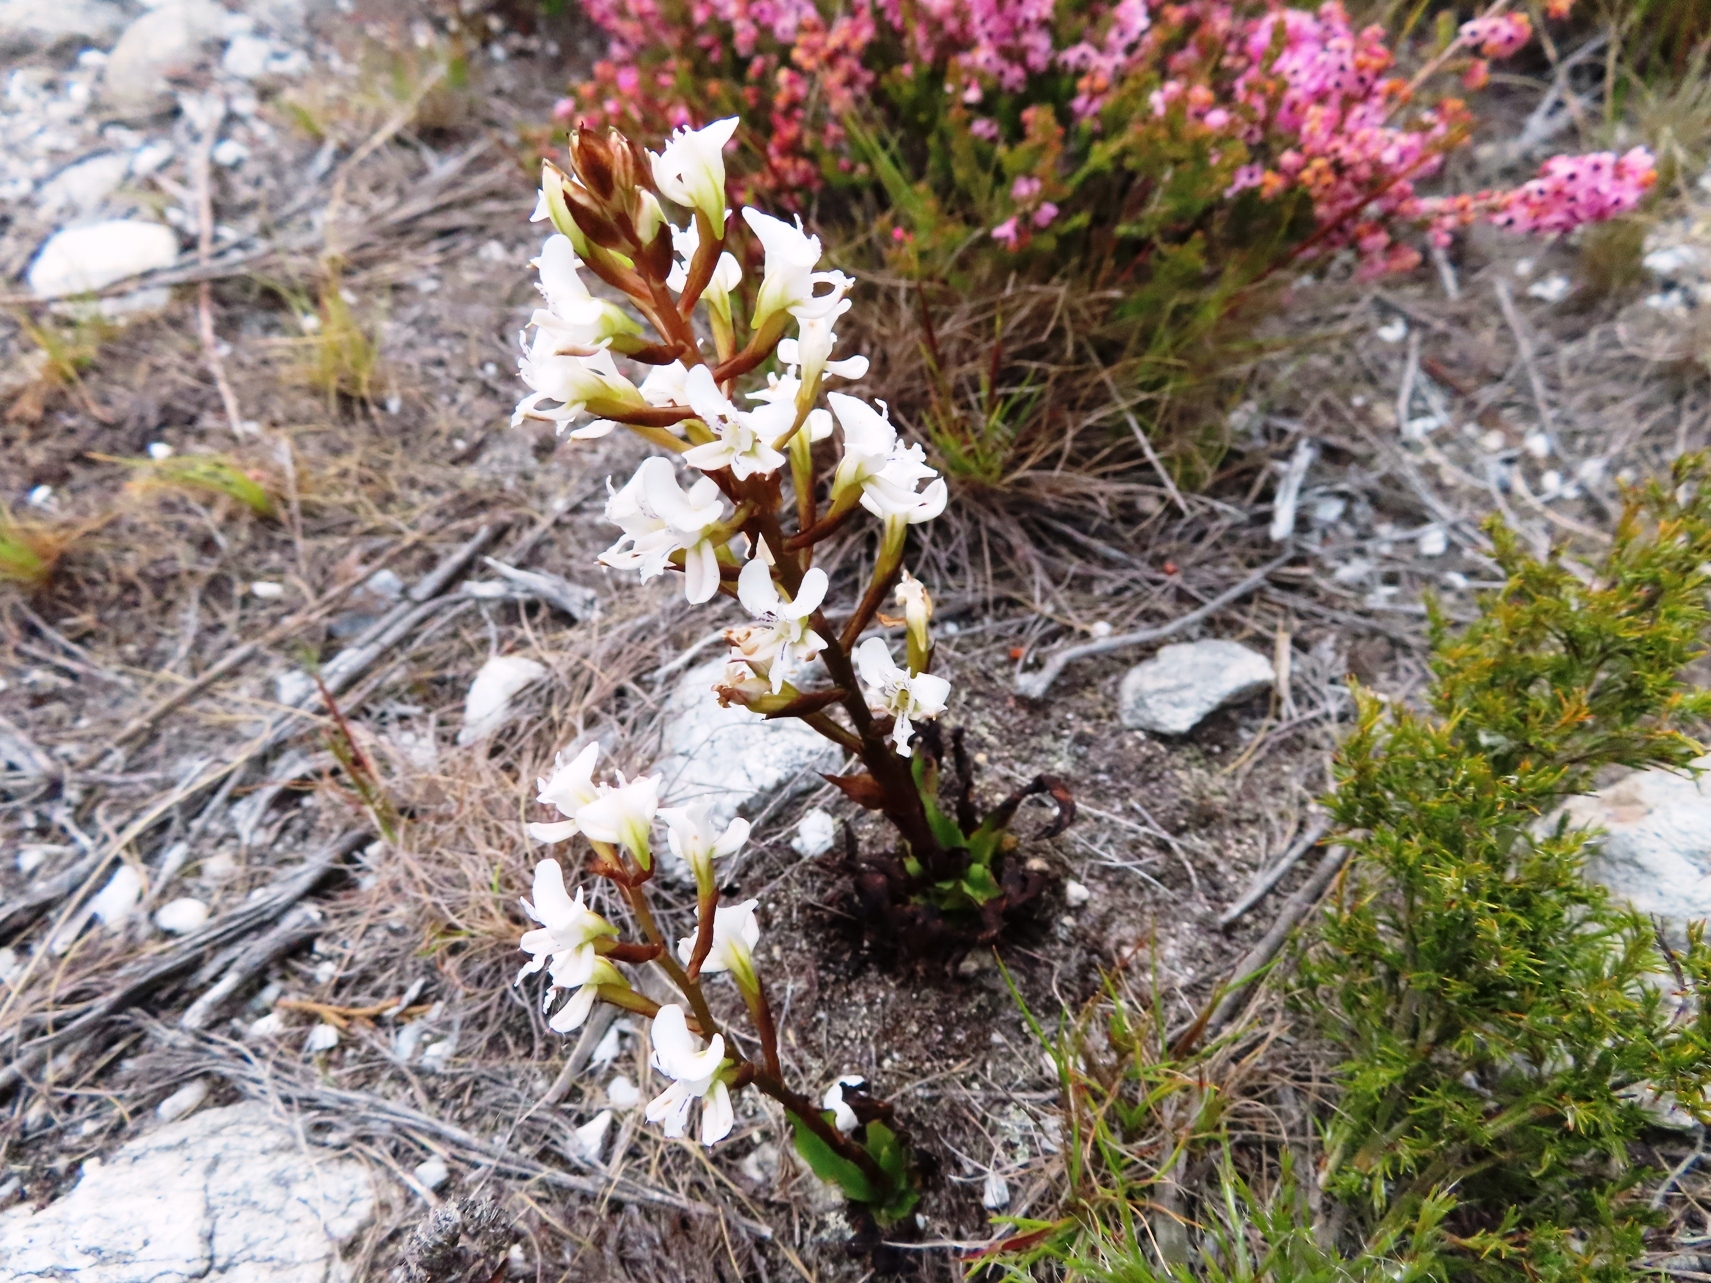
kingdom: Plantae
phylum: Tracheophyta
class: Liliopsida
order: Asparagales
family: Orchidaceae
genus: Disa
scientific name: Disa sagittalis
